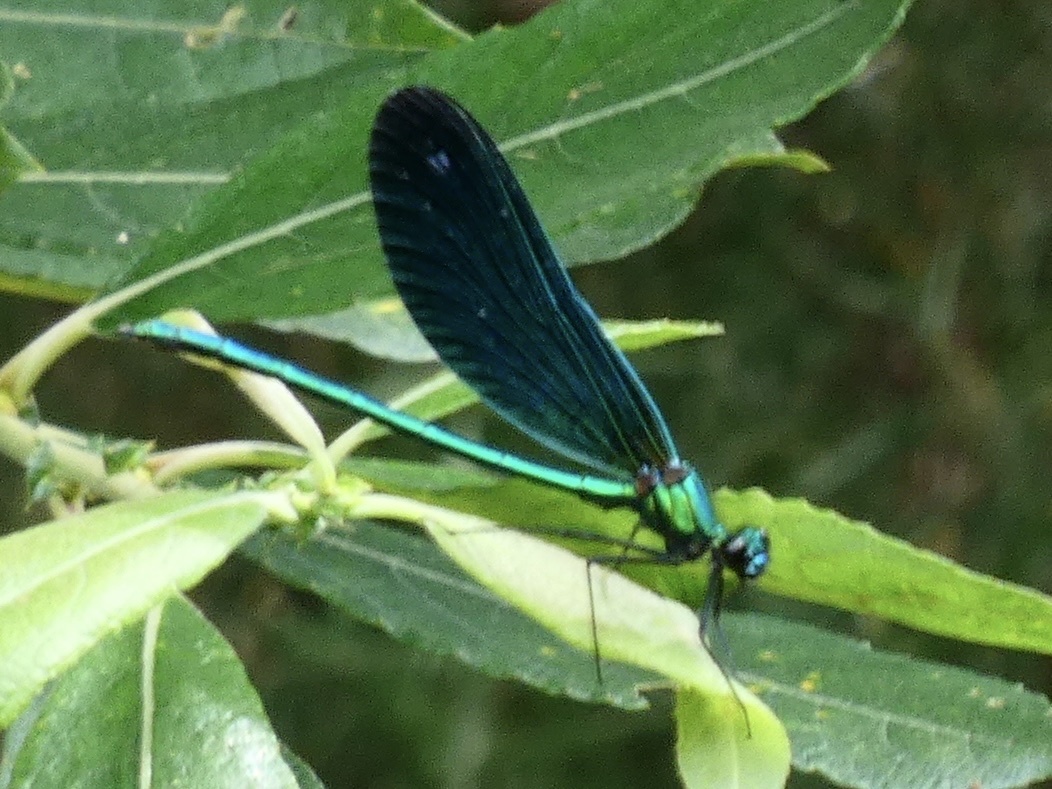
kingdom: Animalia
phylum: Arthropoda
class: Insecta
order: Odonata
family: Calopterygidae
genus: Calopteryx
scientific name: Calopteryx virgo
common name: Beautiful demoiselle
